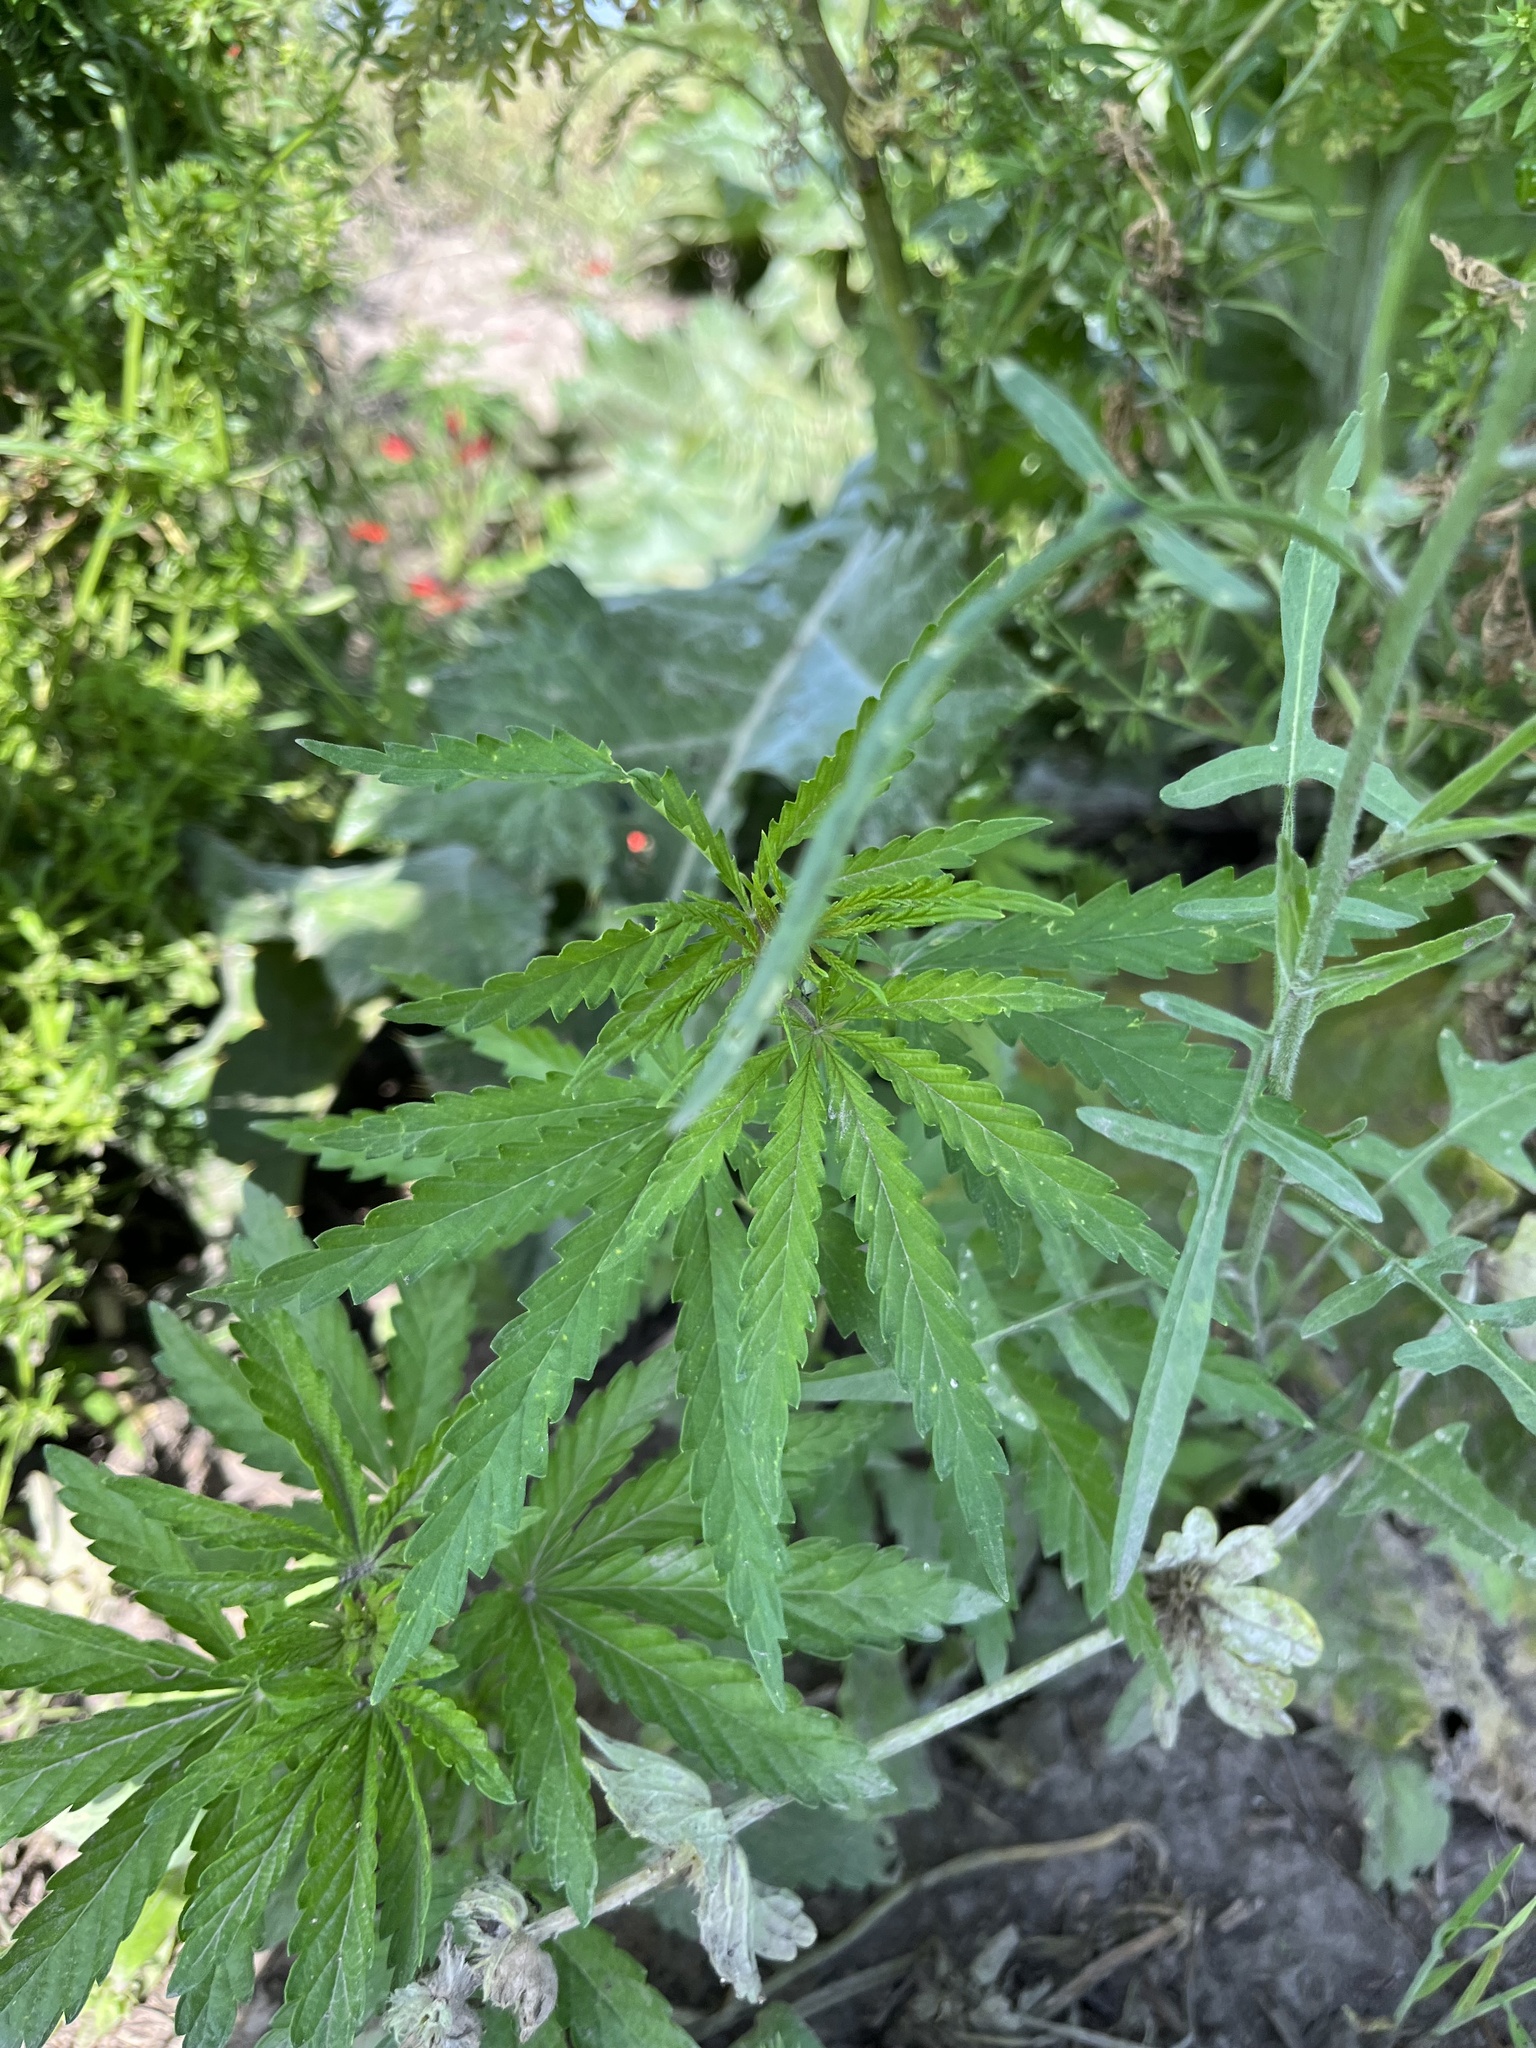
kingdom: Plantae
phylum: Tracheophyta
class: Magnoliopsida
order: Rosales
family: Cannabaceae
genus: Cannabis
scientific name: Cannabis sativa
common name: Hemp
